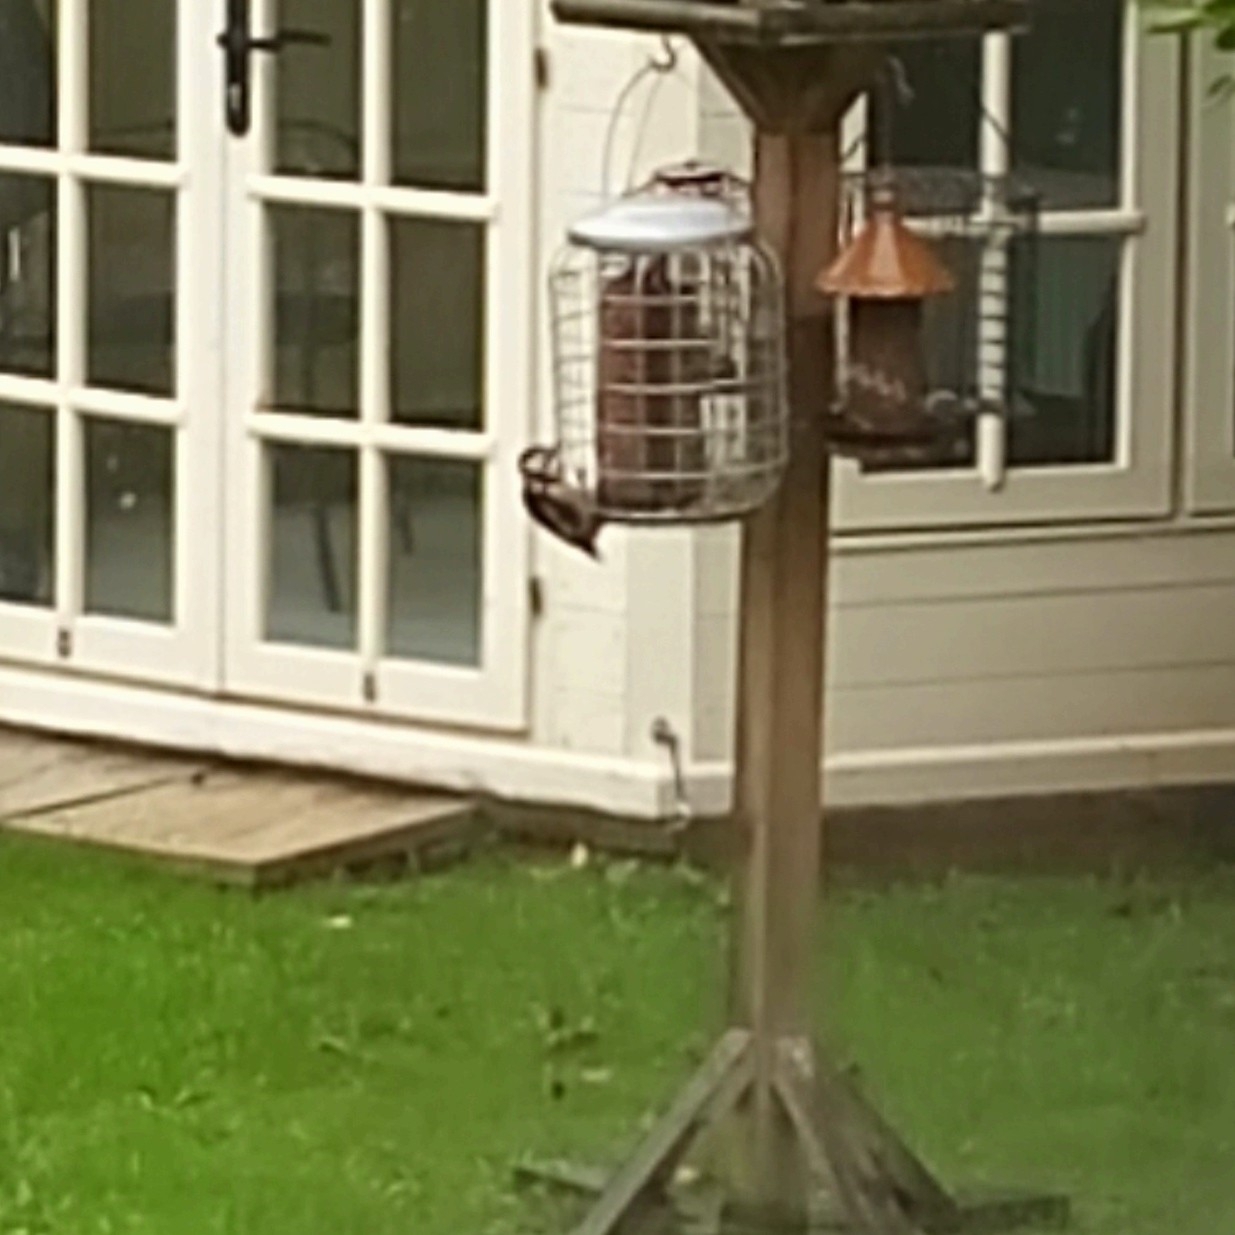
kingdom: Animalia
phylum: Chordata
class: Aves
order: Piciformes
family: Picidae
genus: Dendrocopos
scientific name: Dendrocopos major
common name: Great spotted woodpecker
